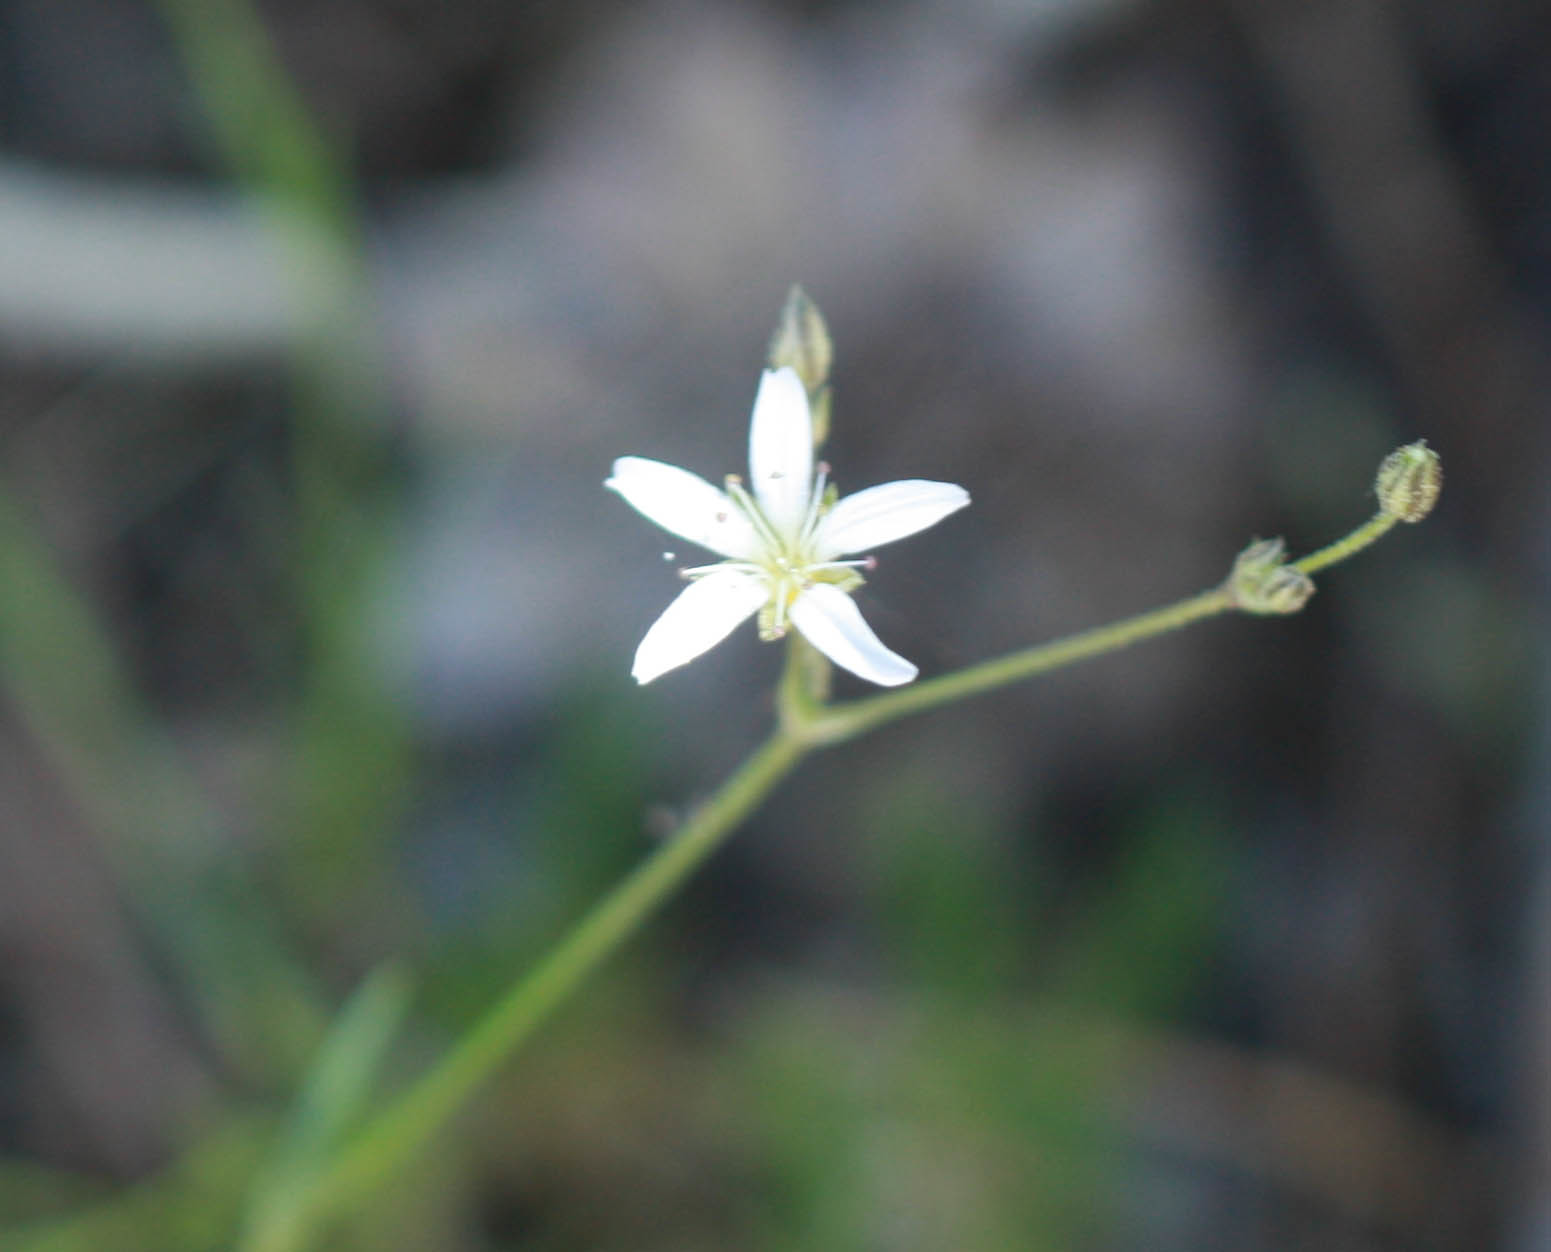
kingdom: Plantae
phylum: Tracheophyta
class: Magnoliopsida
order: Caryophyllales
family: Caryophyllaceae
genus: Eremogone
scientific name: Eremogone kingii
